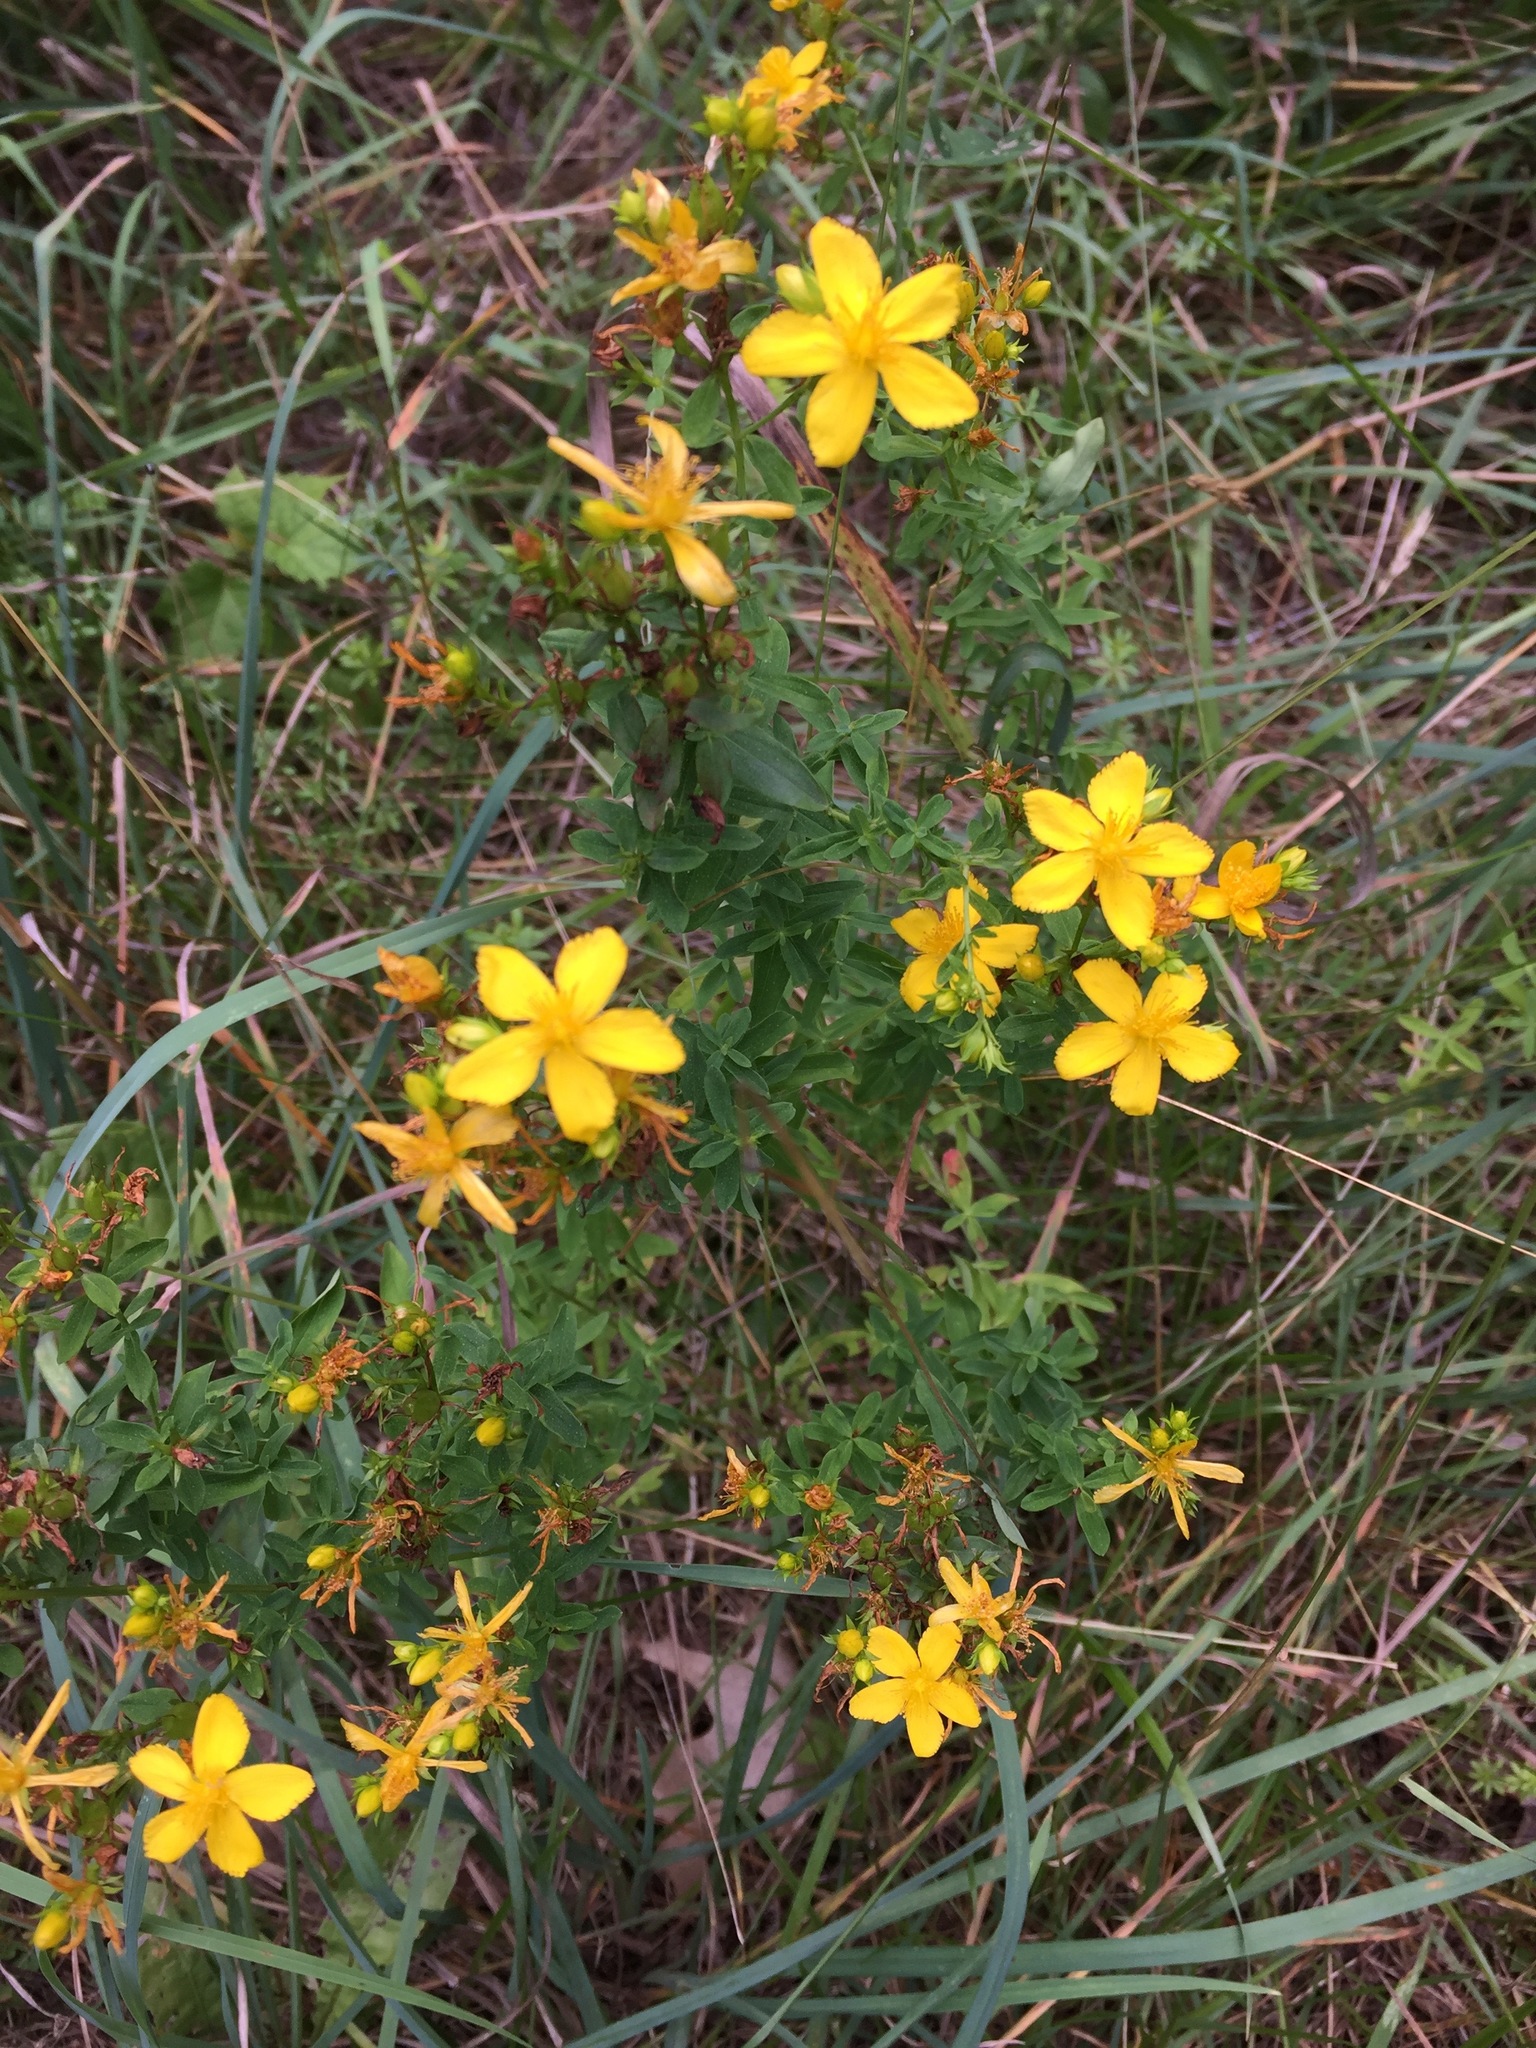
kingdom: Plantae
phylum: Tracheophyta
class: Magnoliopsida
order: Malpighiales
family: Hypericaceae
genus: Hypericum
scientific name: Hypericum perforatum
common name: Common st. johnswort
